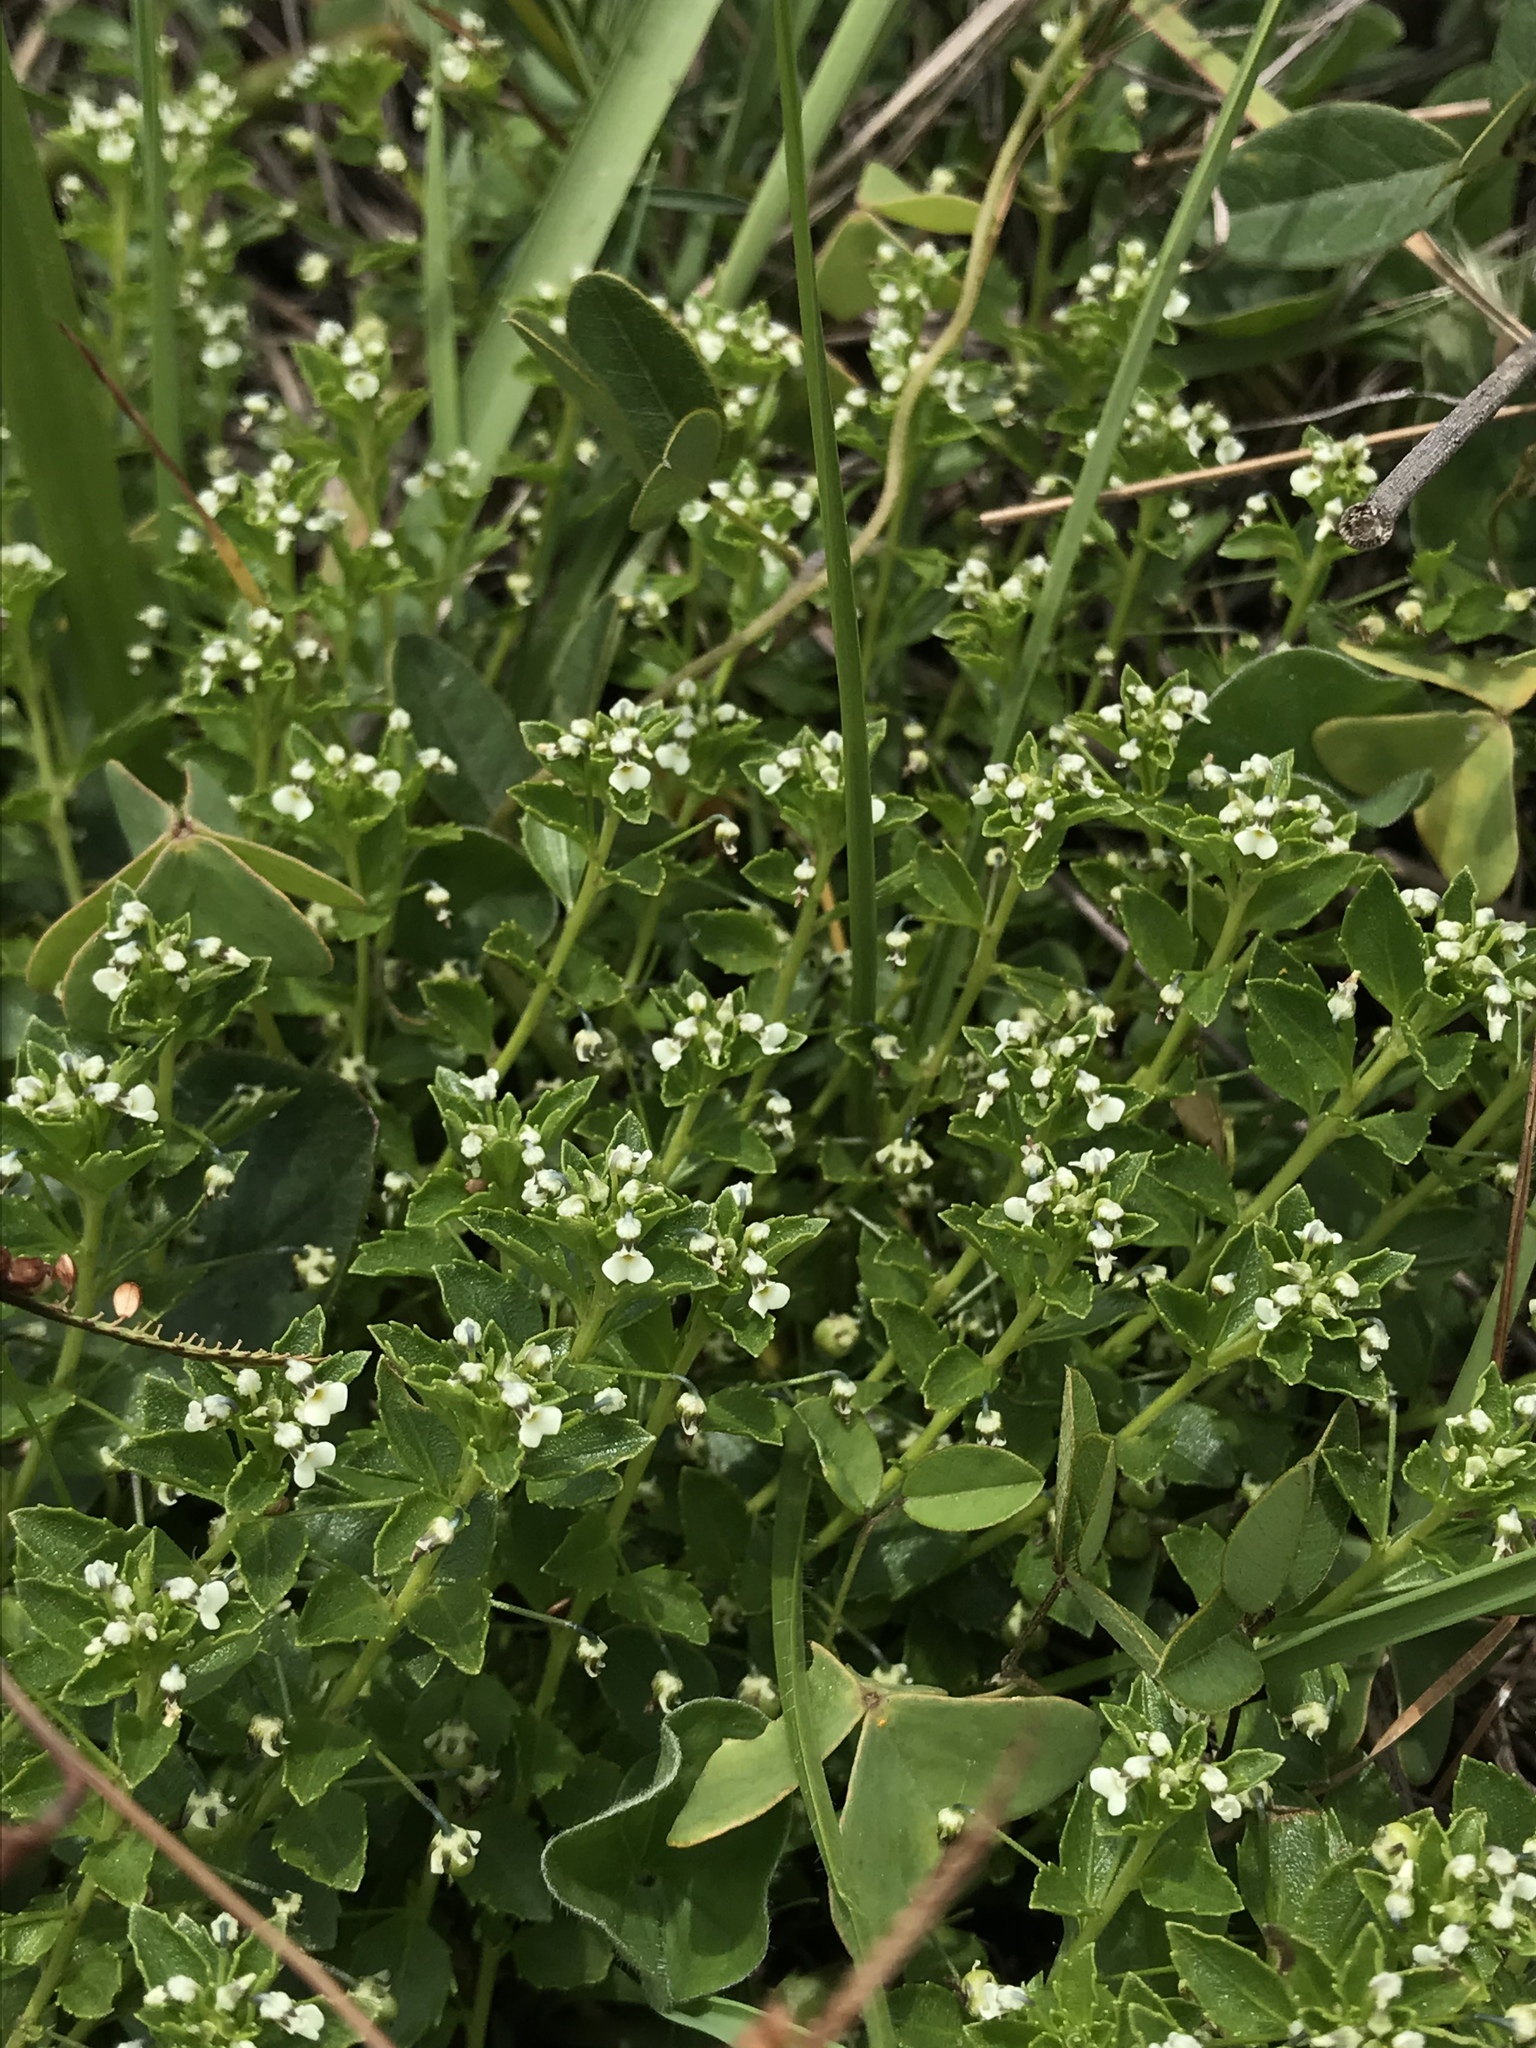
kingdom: Plantae
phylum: Tracheophyta
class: Magnoliopsida
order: Malpighiales
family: Violaceae
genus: Pombalia
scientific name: Pombalia parviflora
